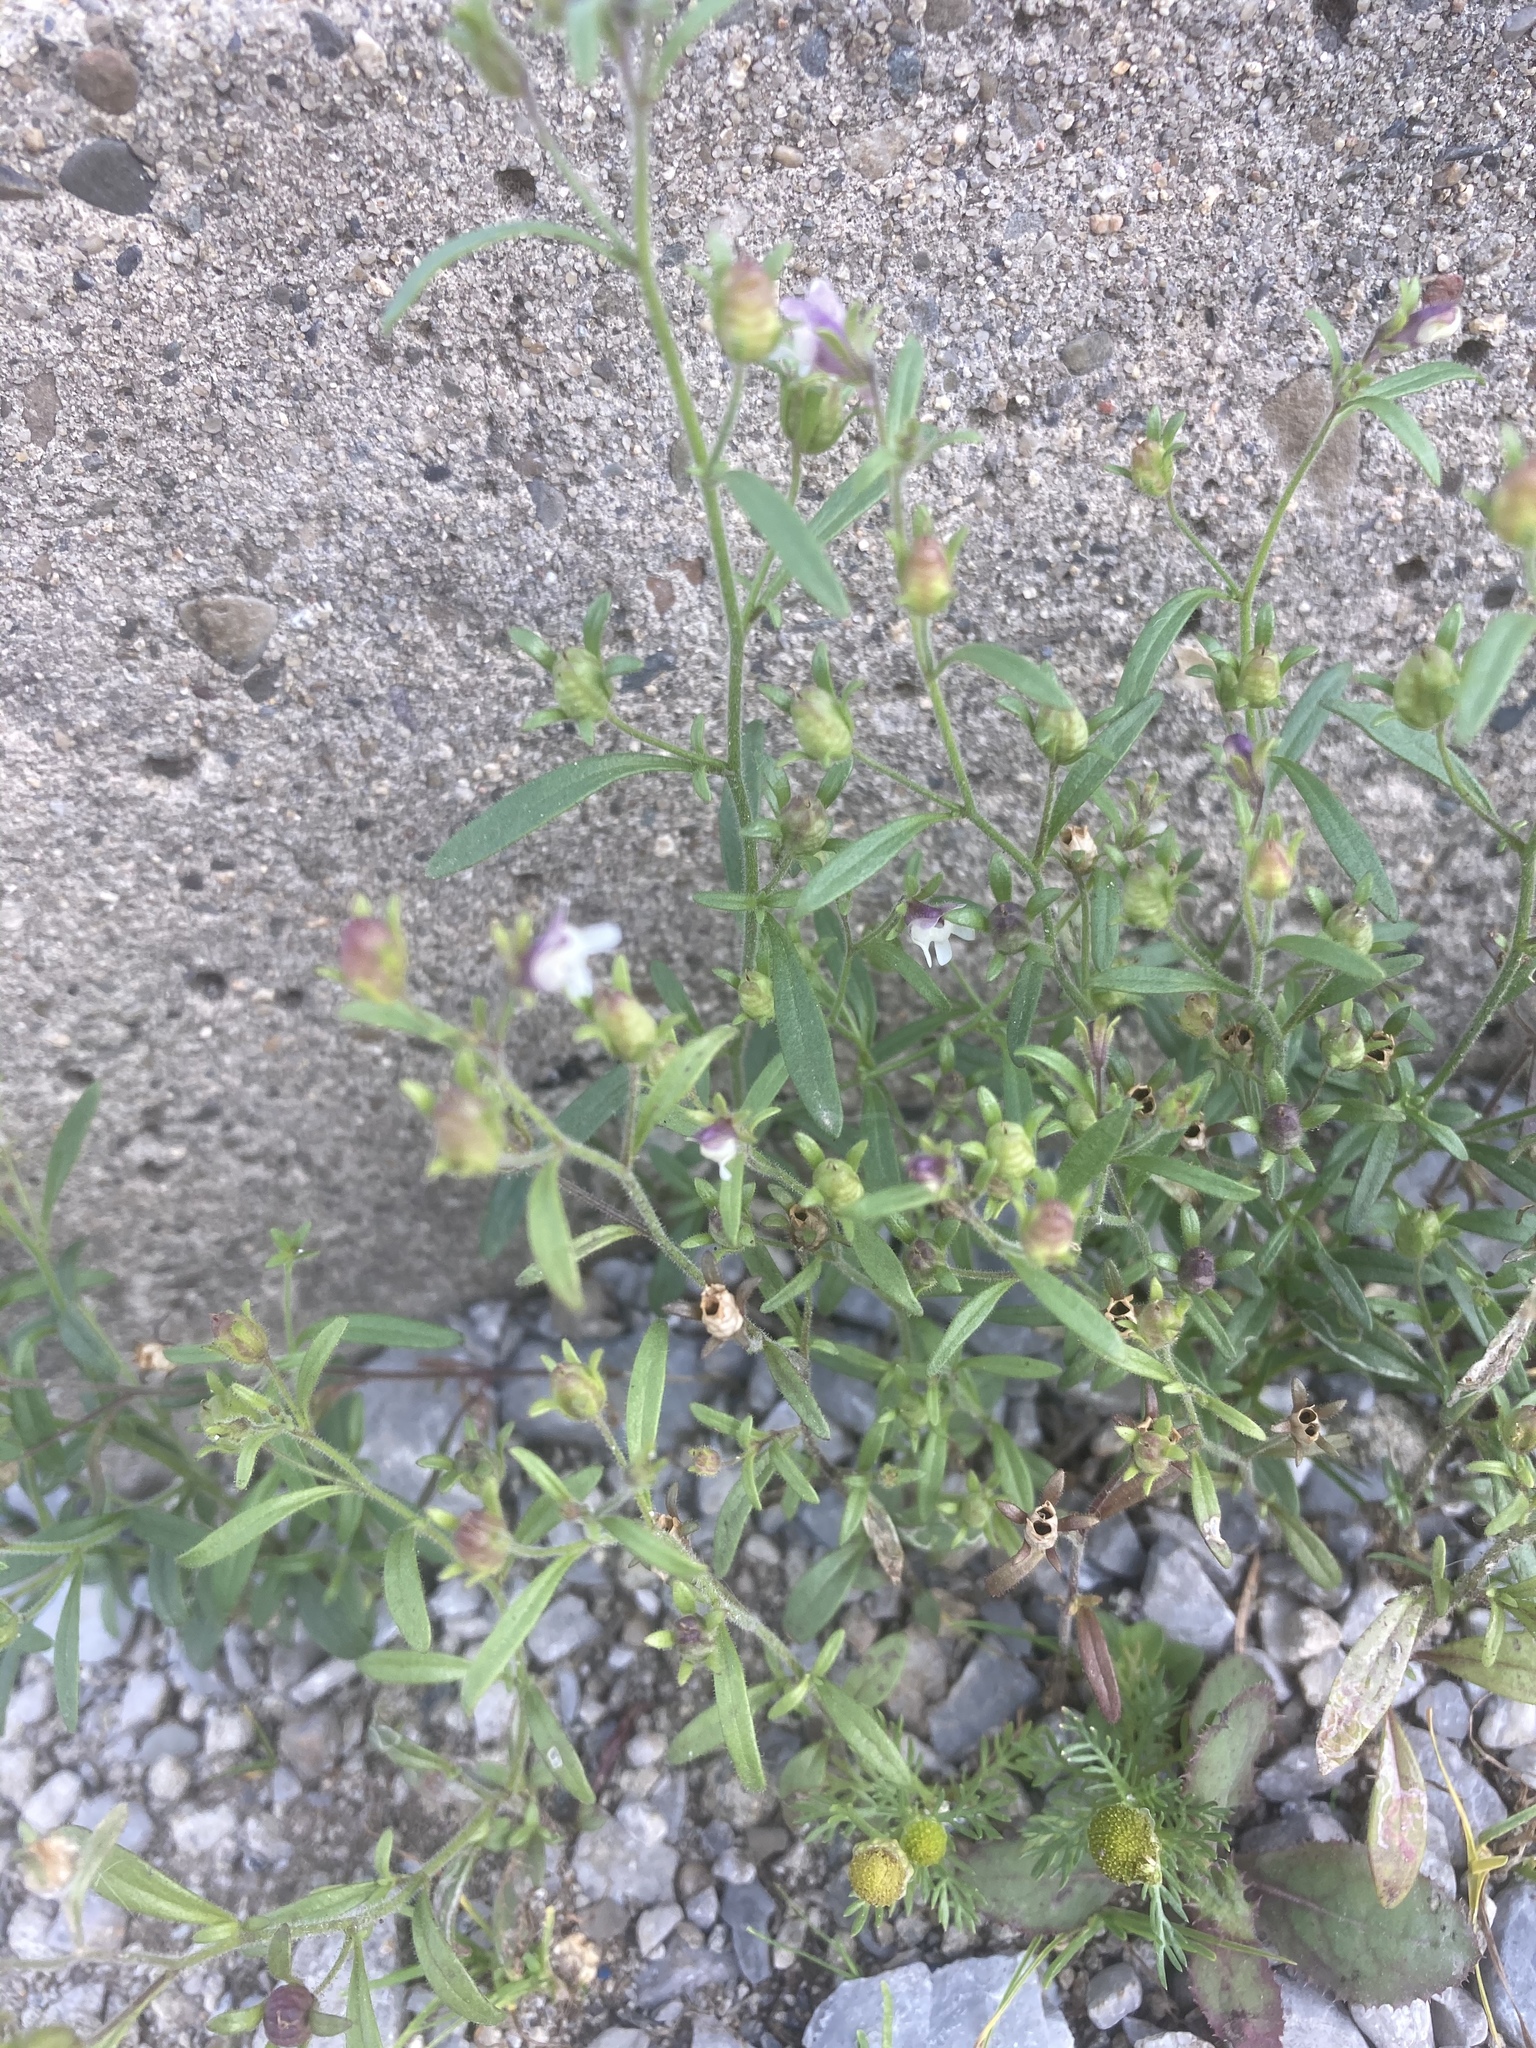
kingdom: Plantae
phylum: Tracheophyta
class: Magnoliopsida
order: Lamiales
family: Plantaginaceae
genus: Chaenorhinum
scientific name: Chaenorhinum minus
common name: Dwarf snapdragon
